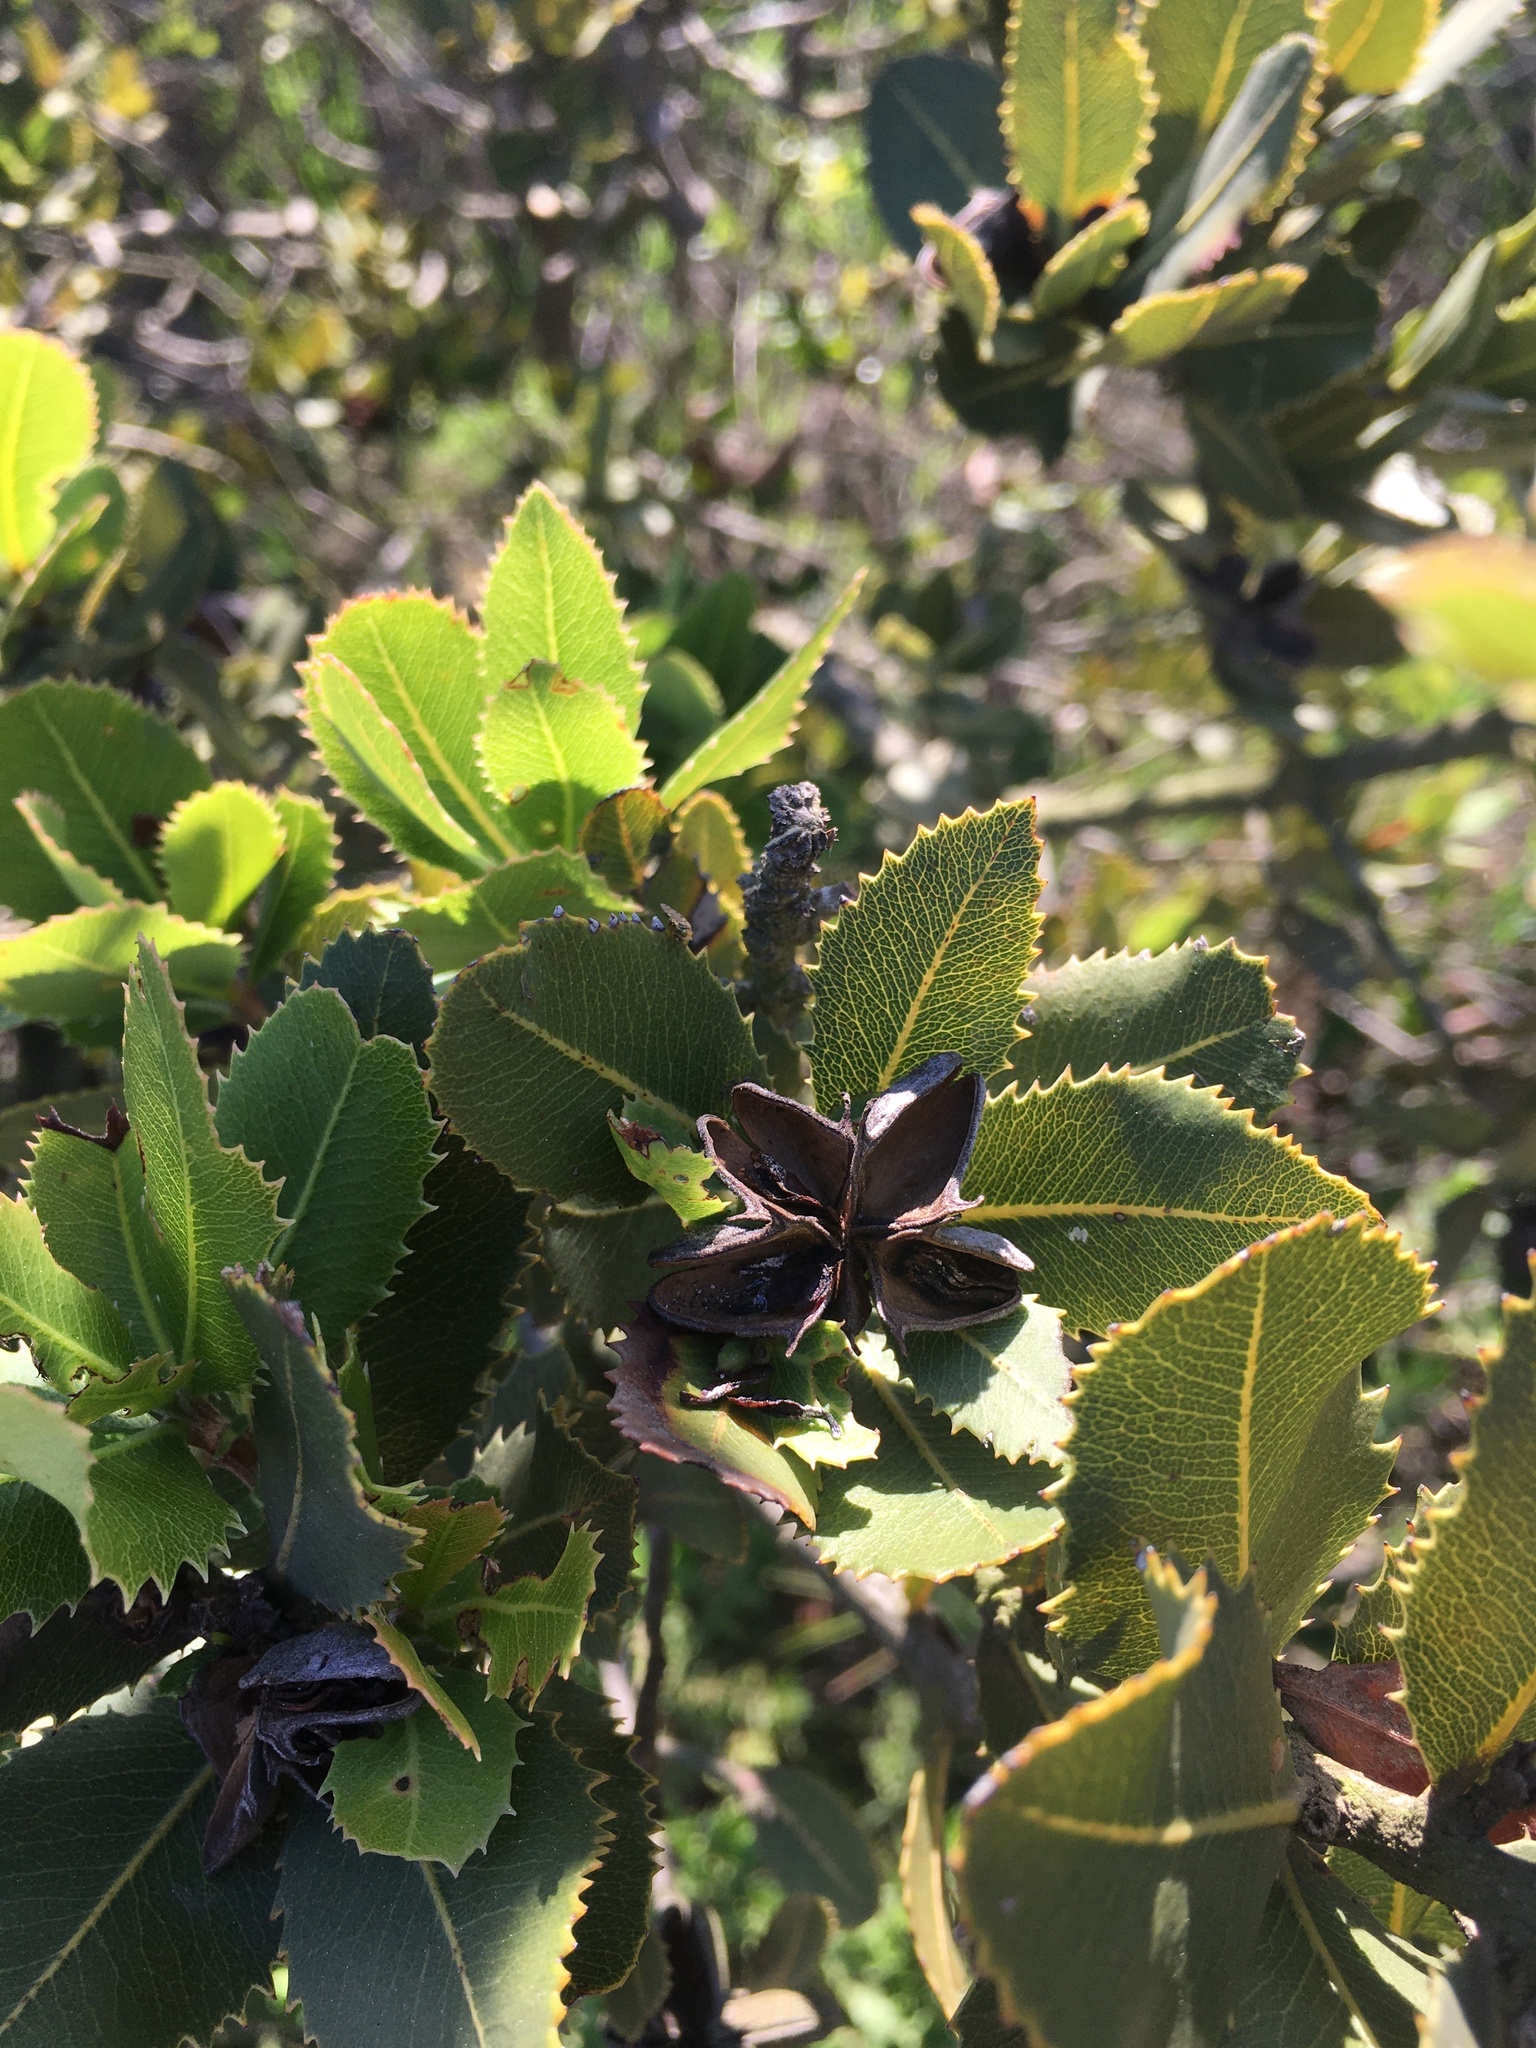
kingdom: Plantae
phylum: Tracheophyta
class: Magnoliopsida
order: Rosales
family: Rosaceae
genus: Kageneckia
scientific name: Kageneckia oblonga
